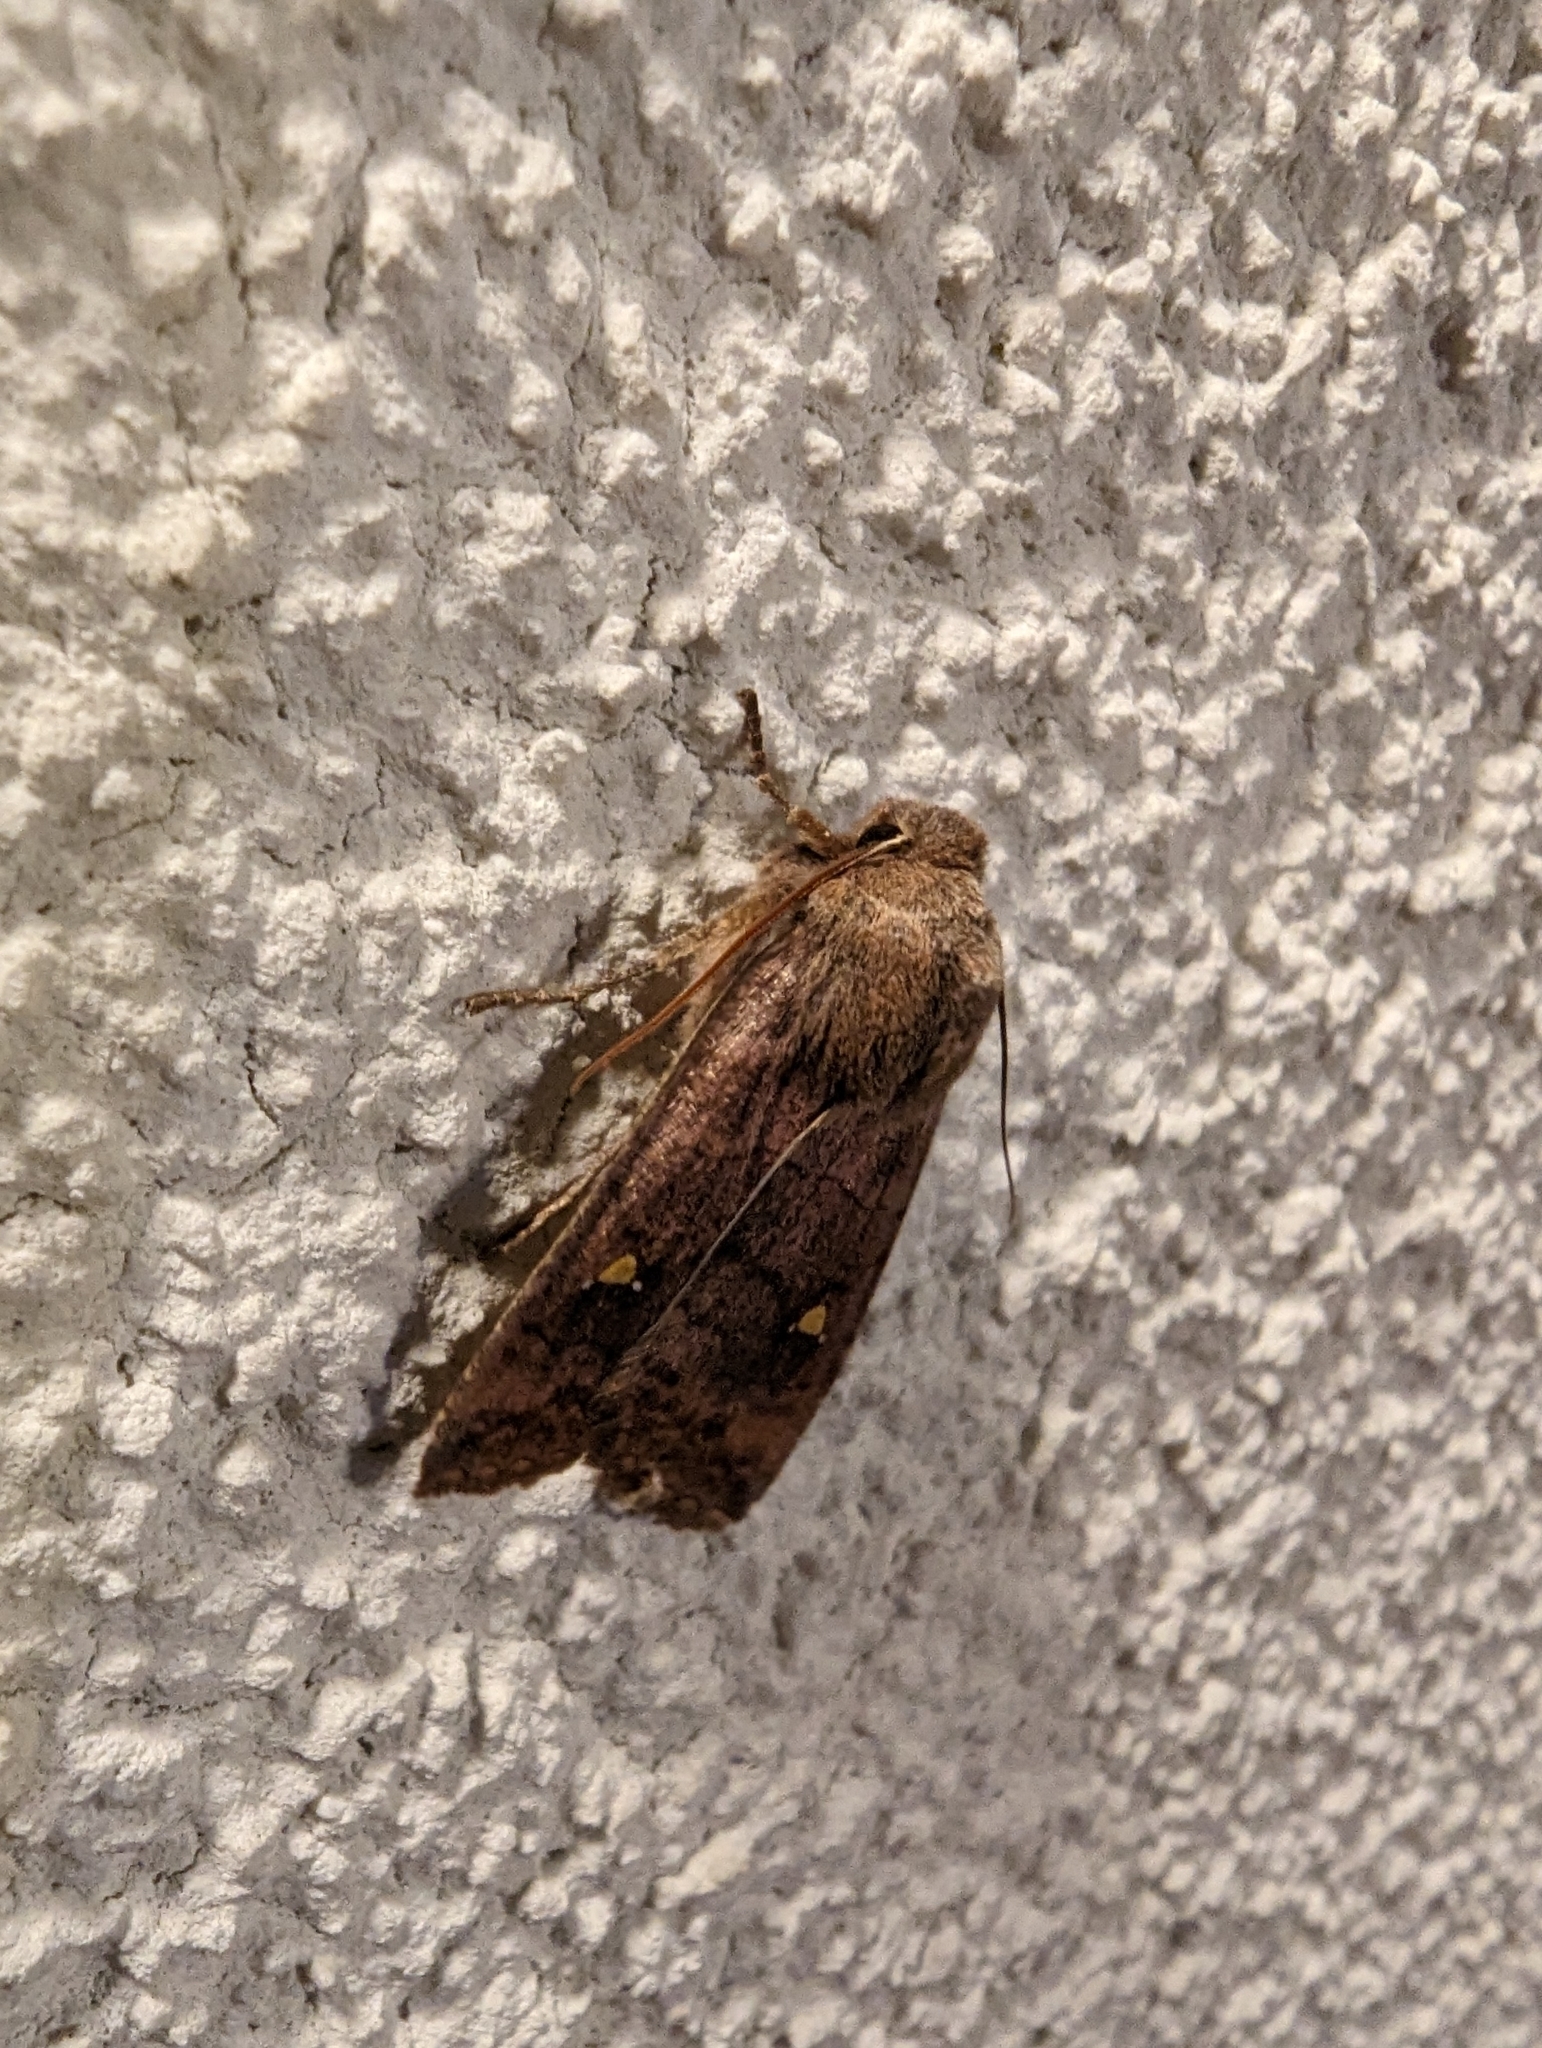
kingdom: Animalia
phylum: Arthropoda
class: Insecta
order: Lepidoptera
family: Noctuidae
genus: Eupsilia
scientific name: Eupsilia transversa
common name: Satellite
